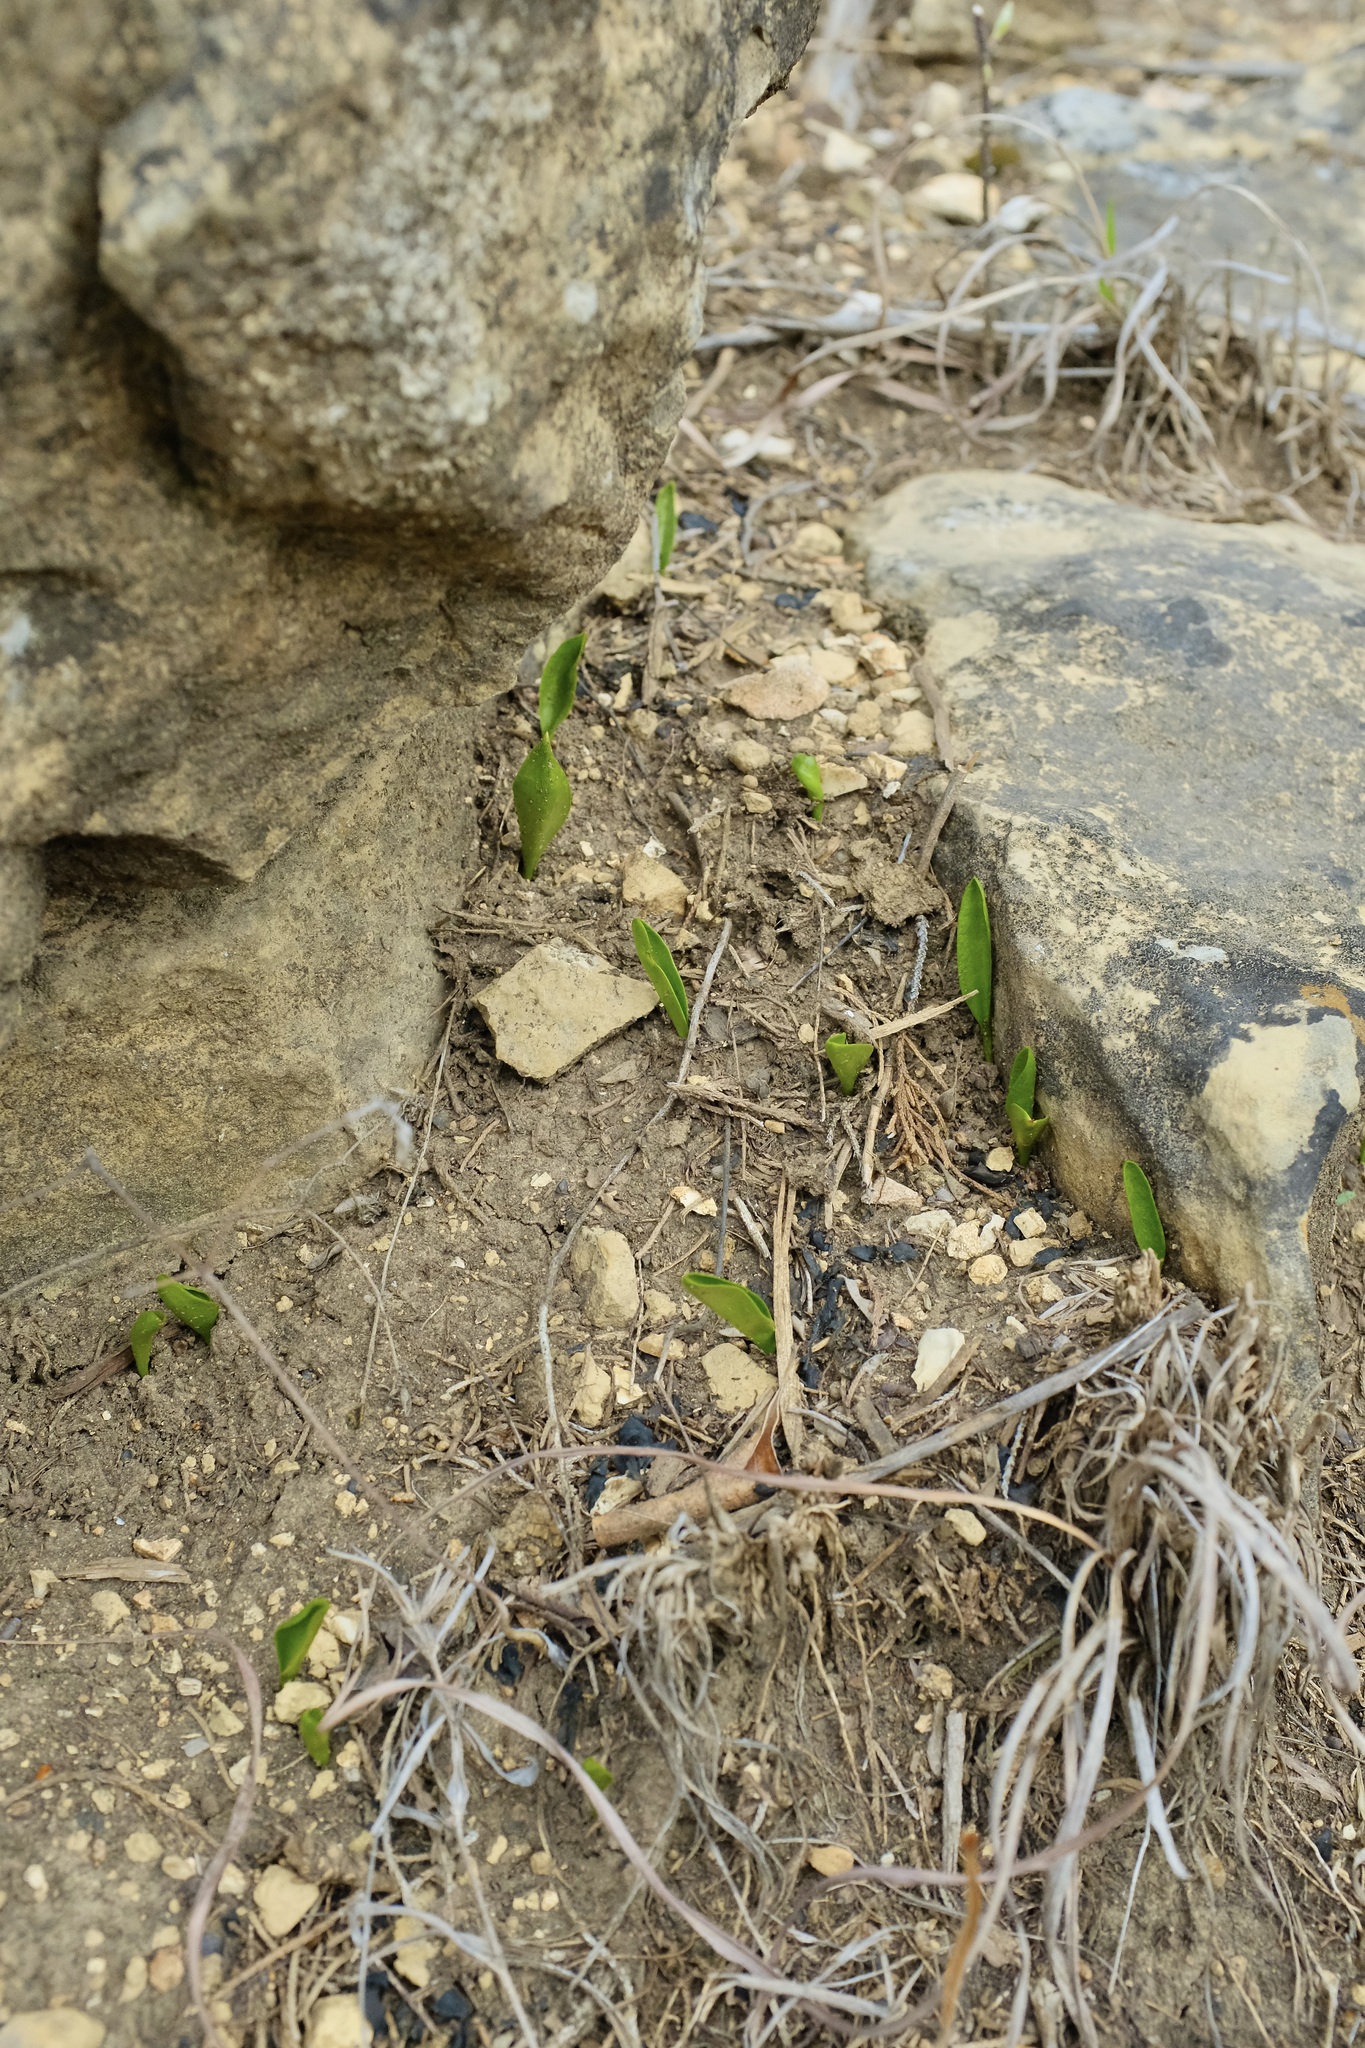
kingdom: Plantae
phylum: Tracheophyta
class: Polypodiopsida
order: Ophioglossales
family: Ophioglossaceae
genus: Ophioglossum
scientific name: Ophioglossum engelmannii
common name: Limestone adder's-tongue
